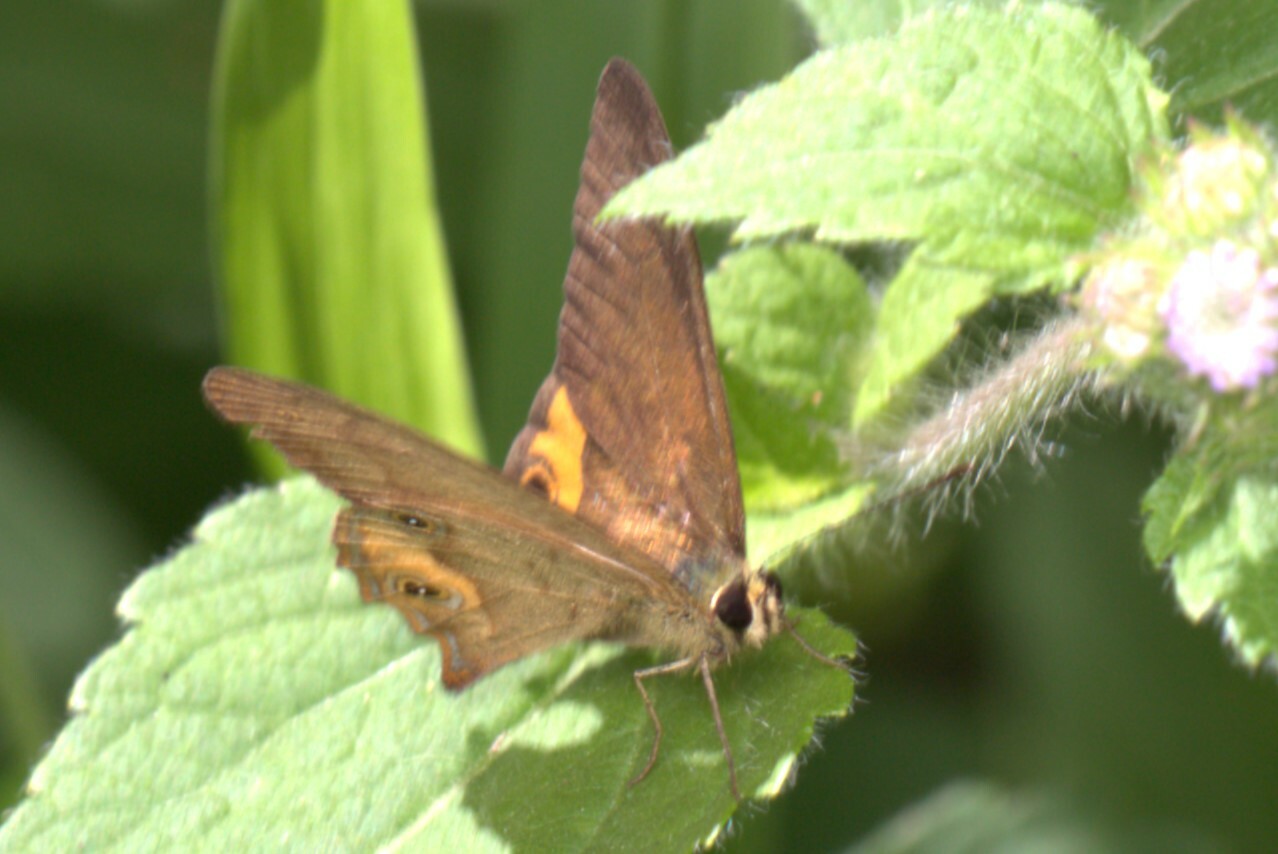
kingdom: Animalia
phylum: Arthropoda
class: Insecta
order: Lepidoptera
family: Nymphalidae
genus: Hypocysta
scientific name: Hypocysta metirius
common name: Brown ringlet
